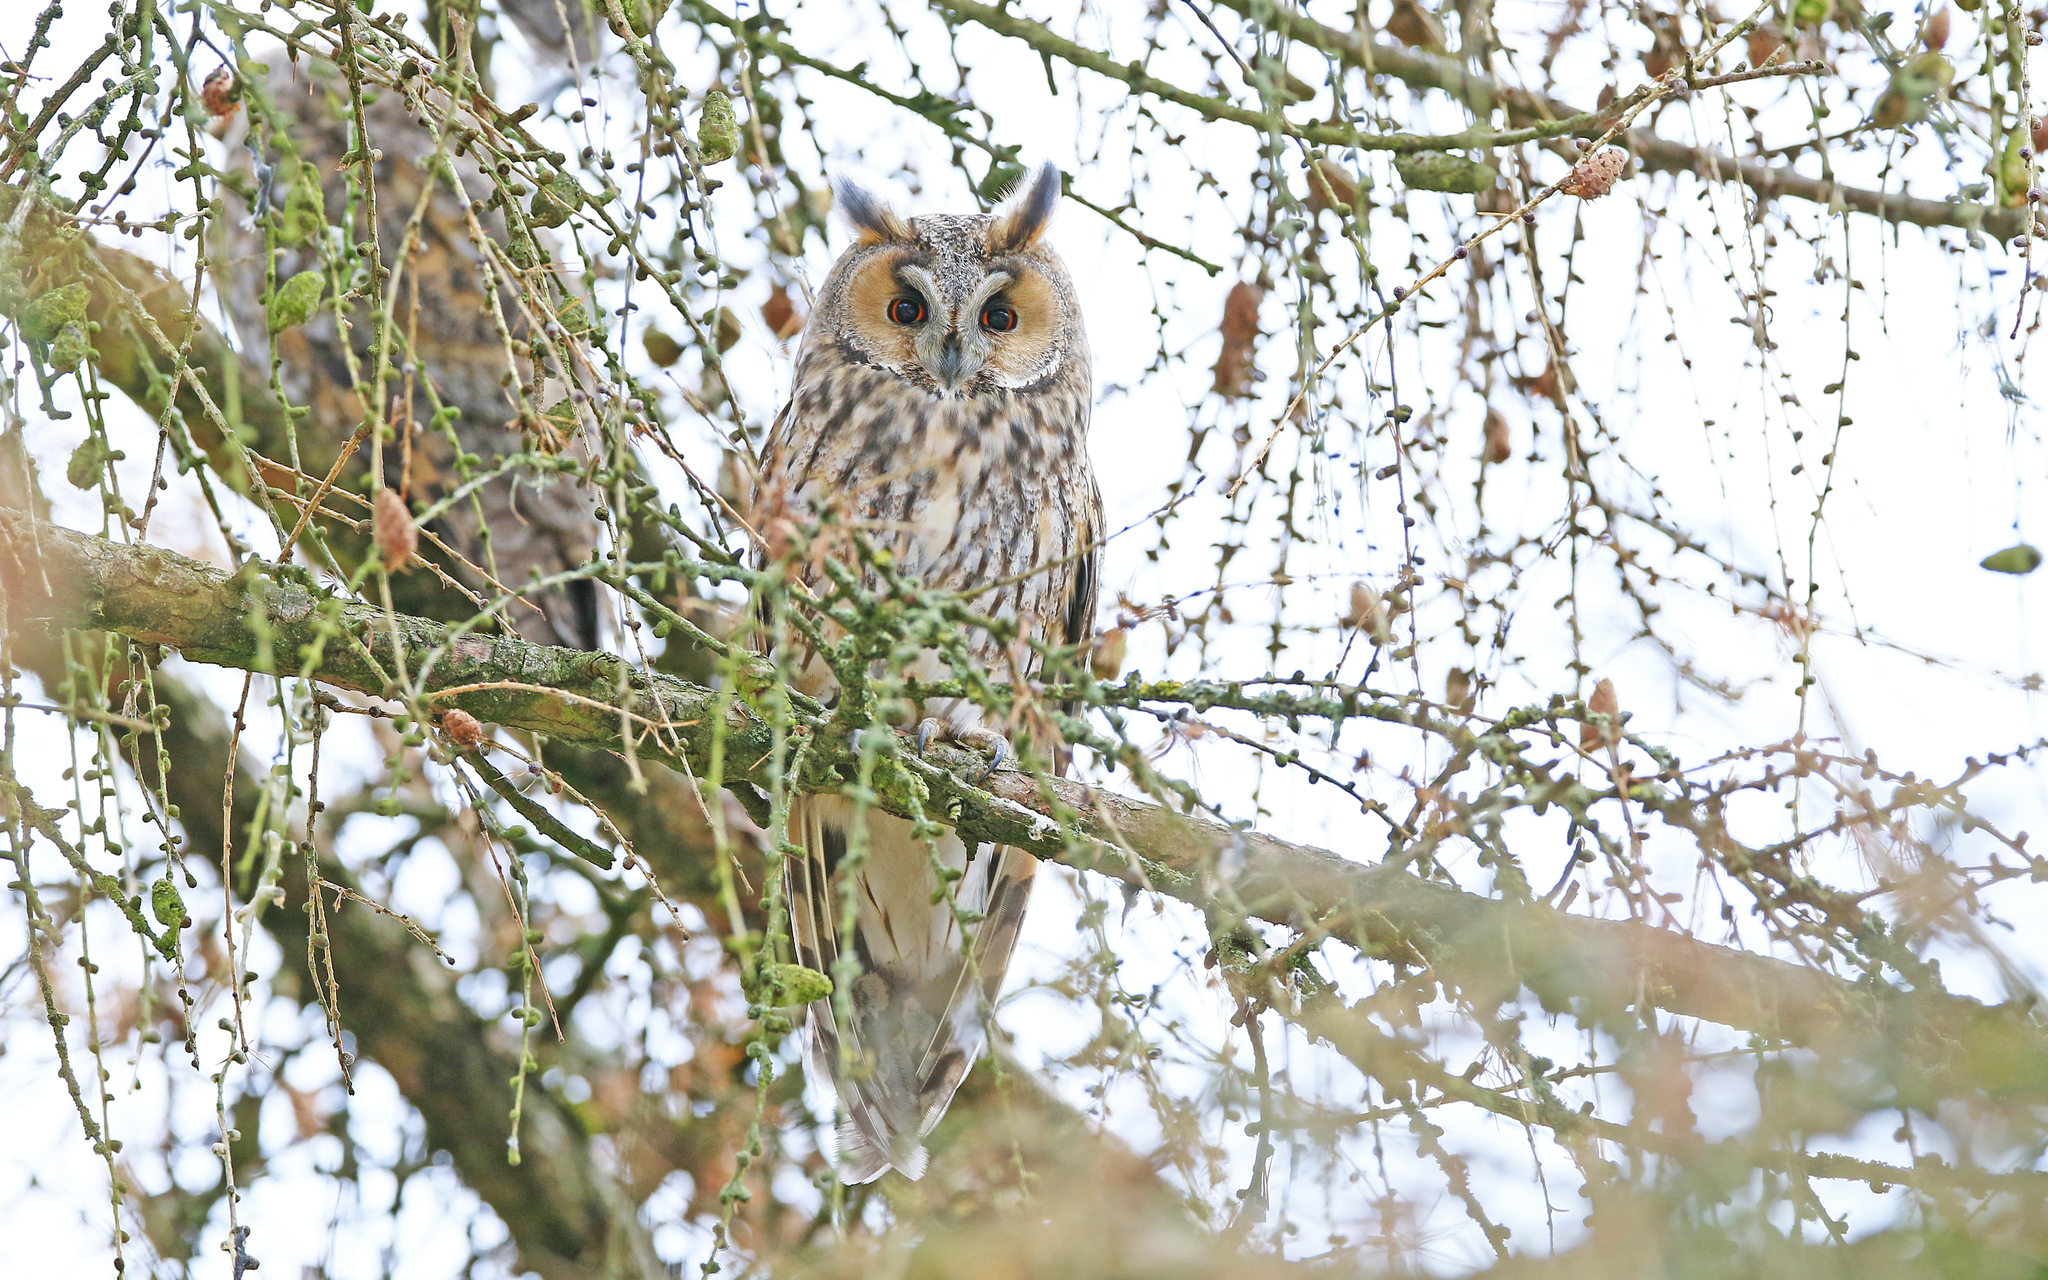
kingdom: Animalia
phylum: Chordata
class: Aves
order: Strigiformes
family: Strigidae
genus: Asio
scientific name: Asio otus
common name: Long-eared owl
